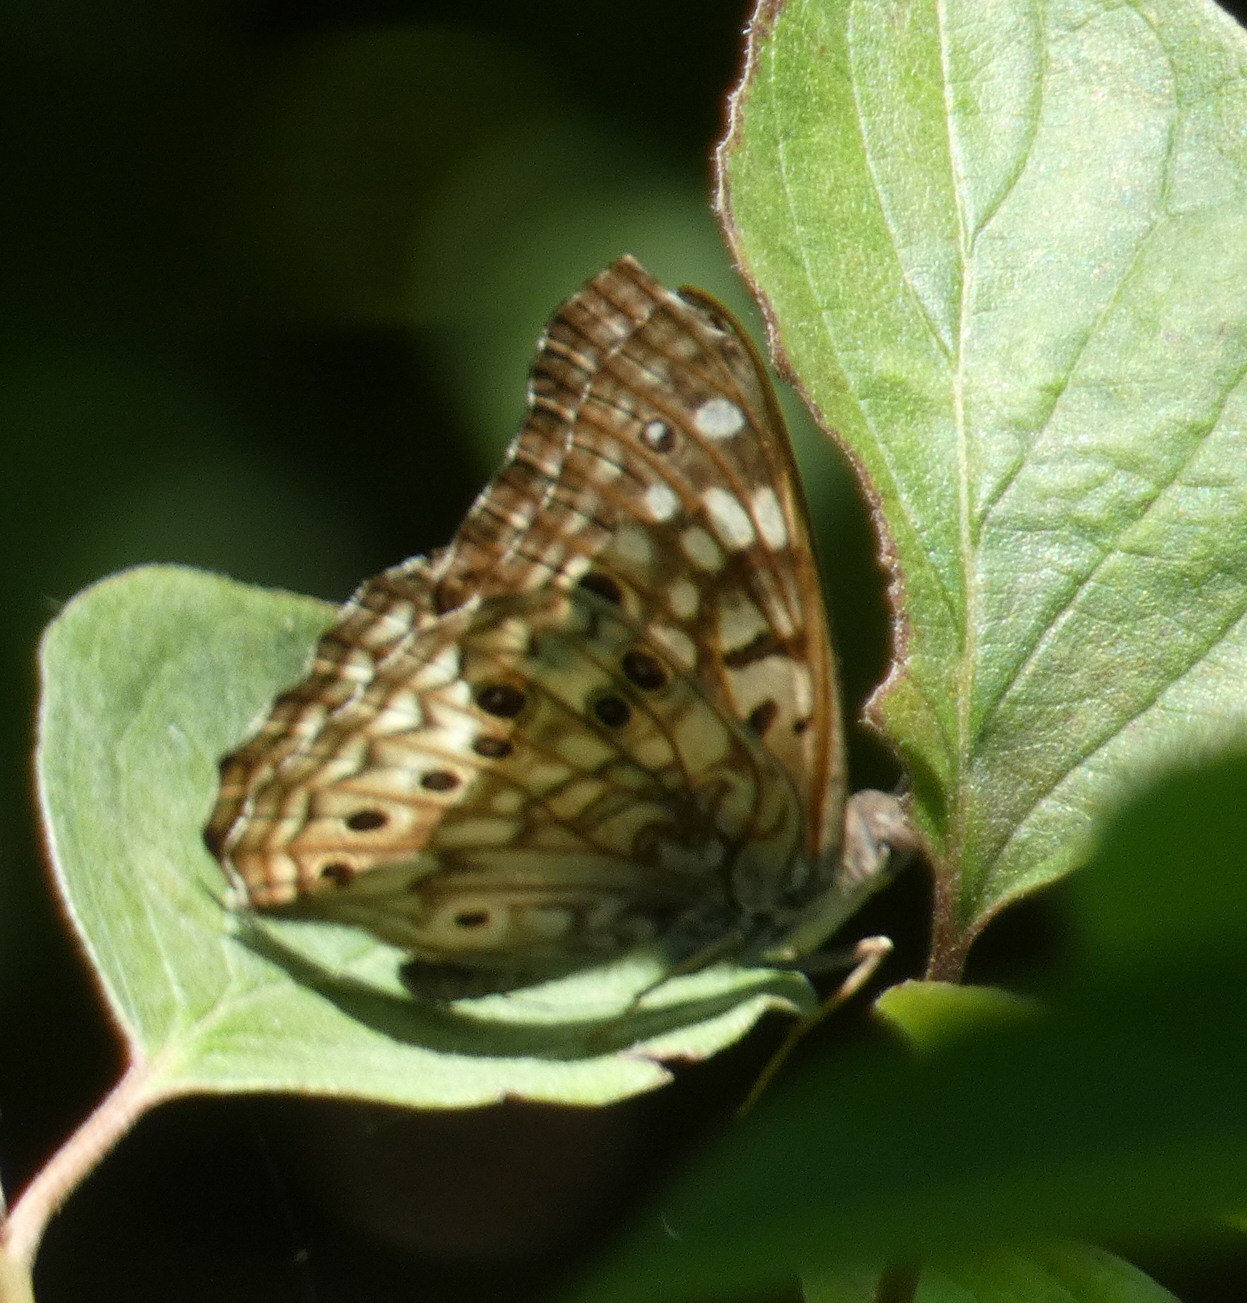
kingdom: Animalia
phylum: Arthropoda
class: Insecta
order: Lepidoptera
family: Nymphalidae
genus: Asterocampa
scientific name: Asterocampa celtis
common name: Hackberry emperor
